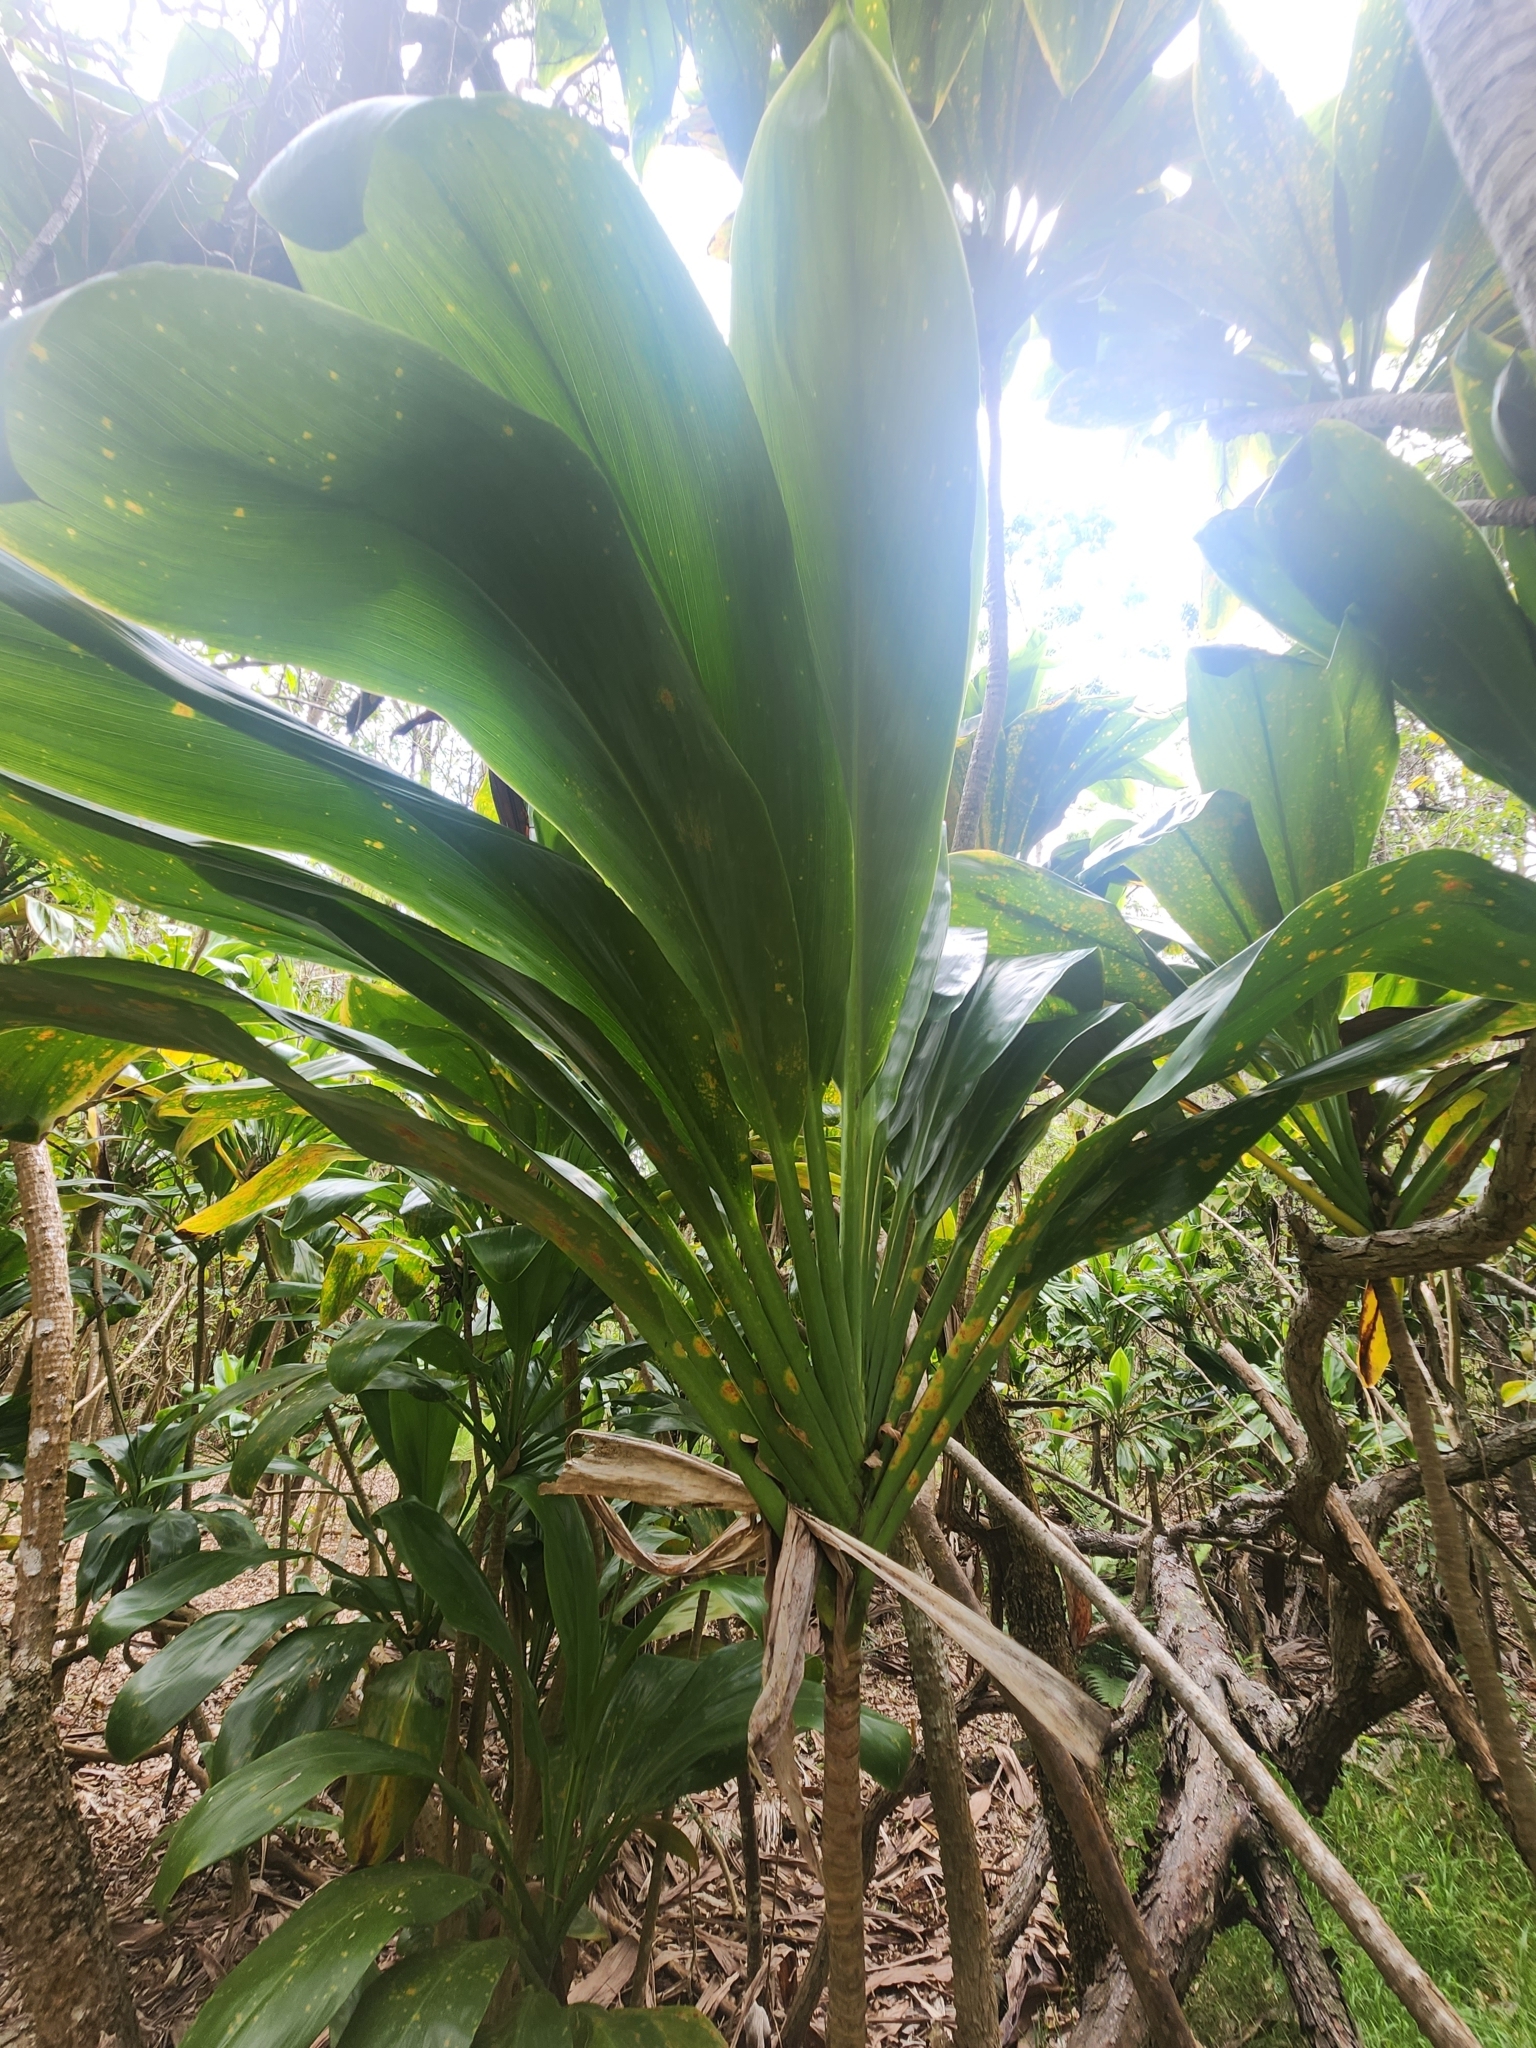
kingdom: Plantae
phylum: Tracheophyta
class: Liliopsida
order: Asparagales
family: Asparagaceae
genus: Cordyline
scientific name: Cordyline fruticosa
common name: Good-luck-plant
